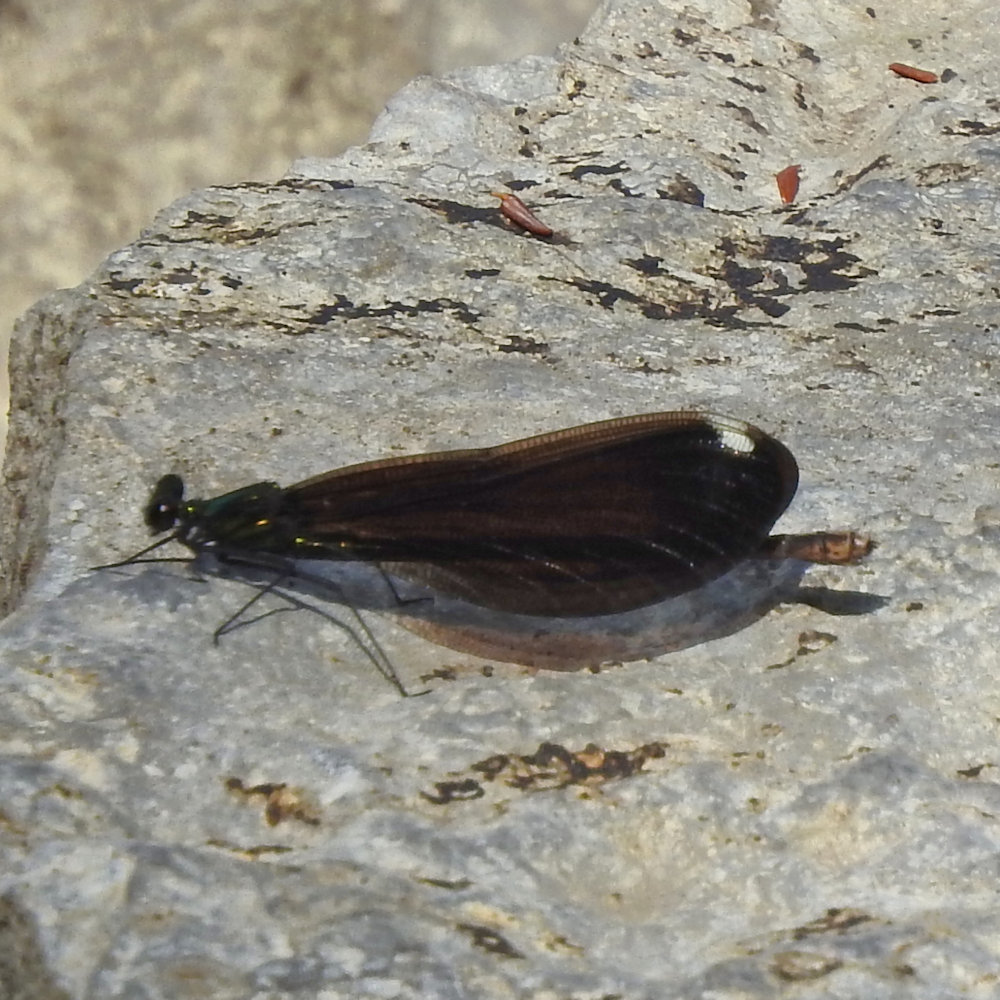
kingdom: Animalia
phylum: Arthropoda
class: Insecta
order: Odonata
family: Calopterygidae
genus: Calopteryx
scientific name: Calopteryx maculata
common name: Ebony jewelwing
